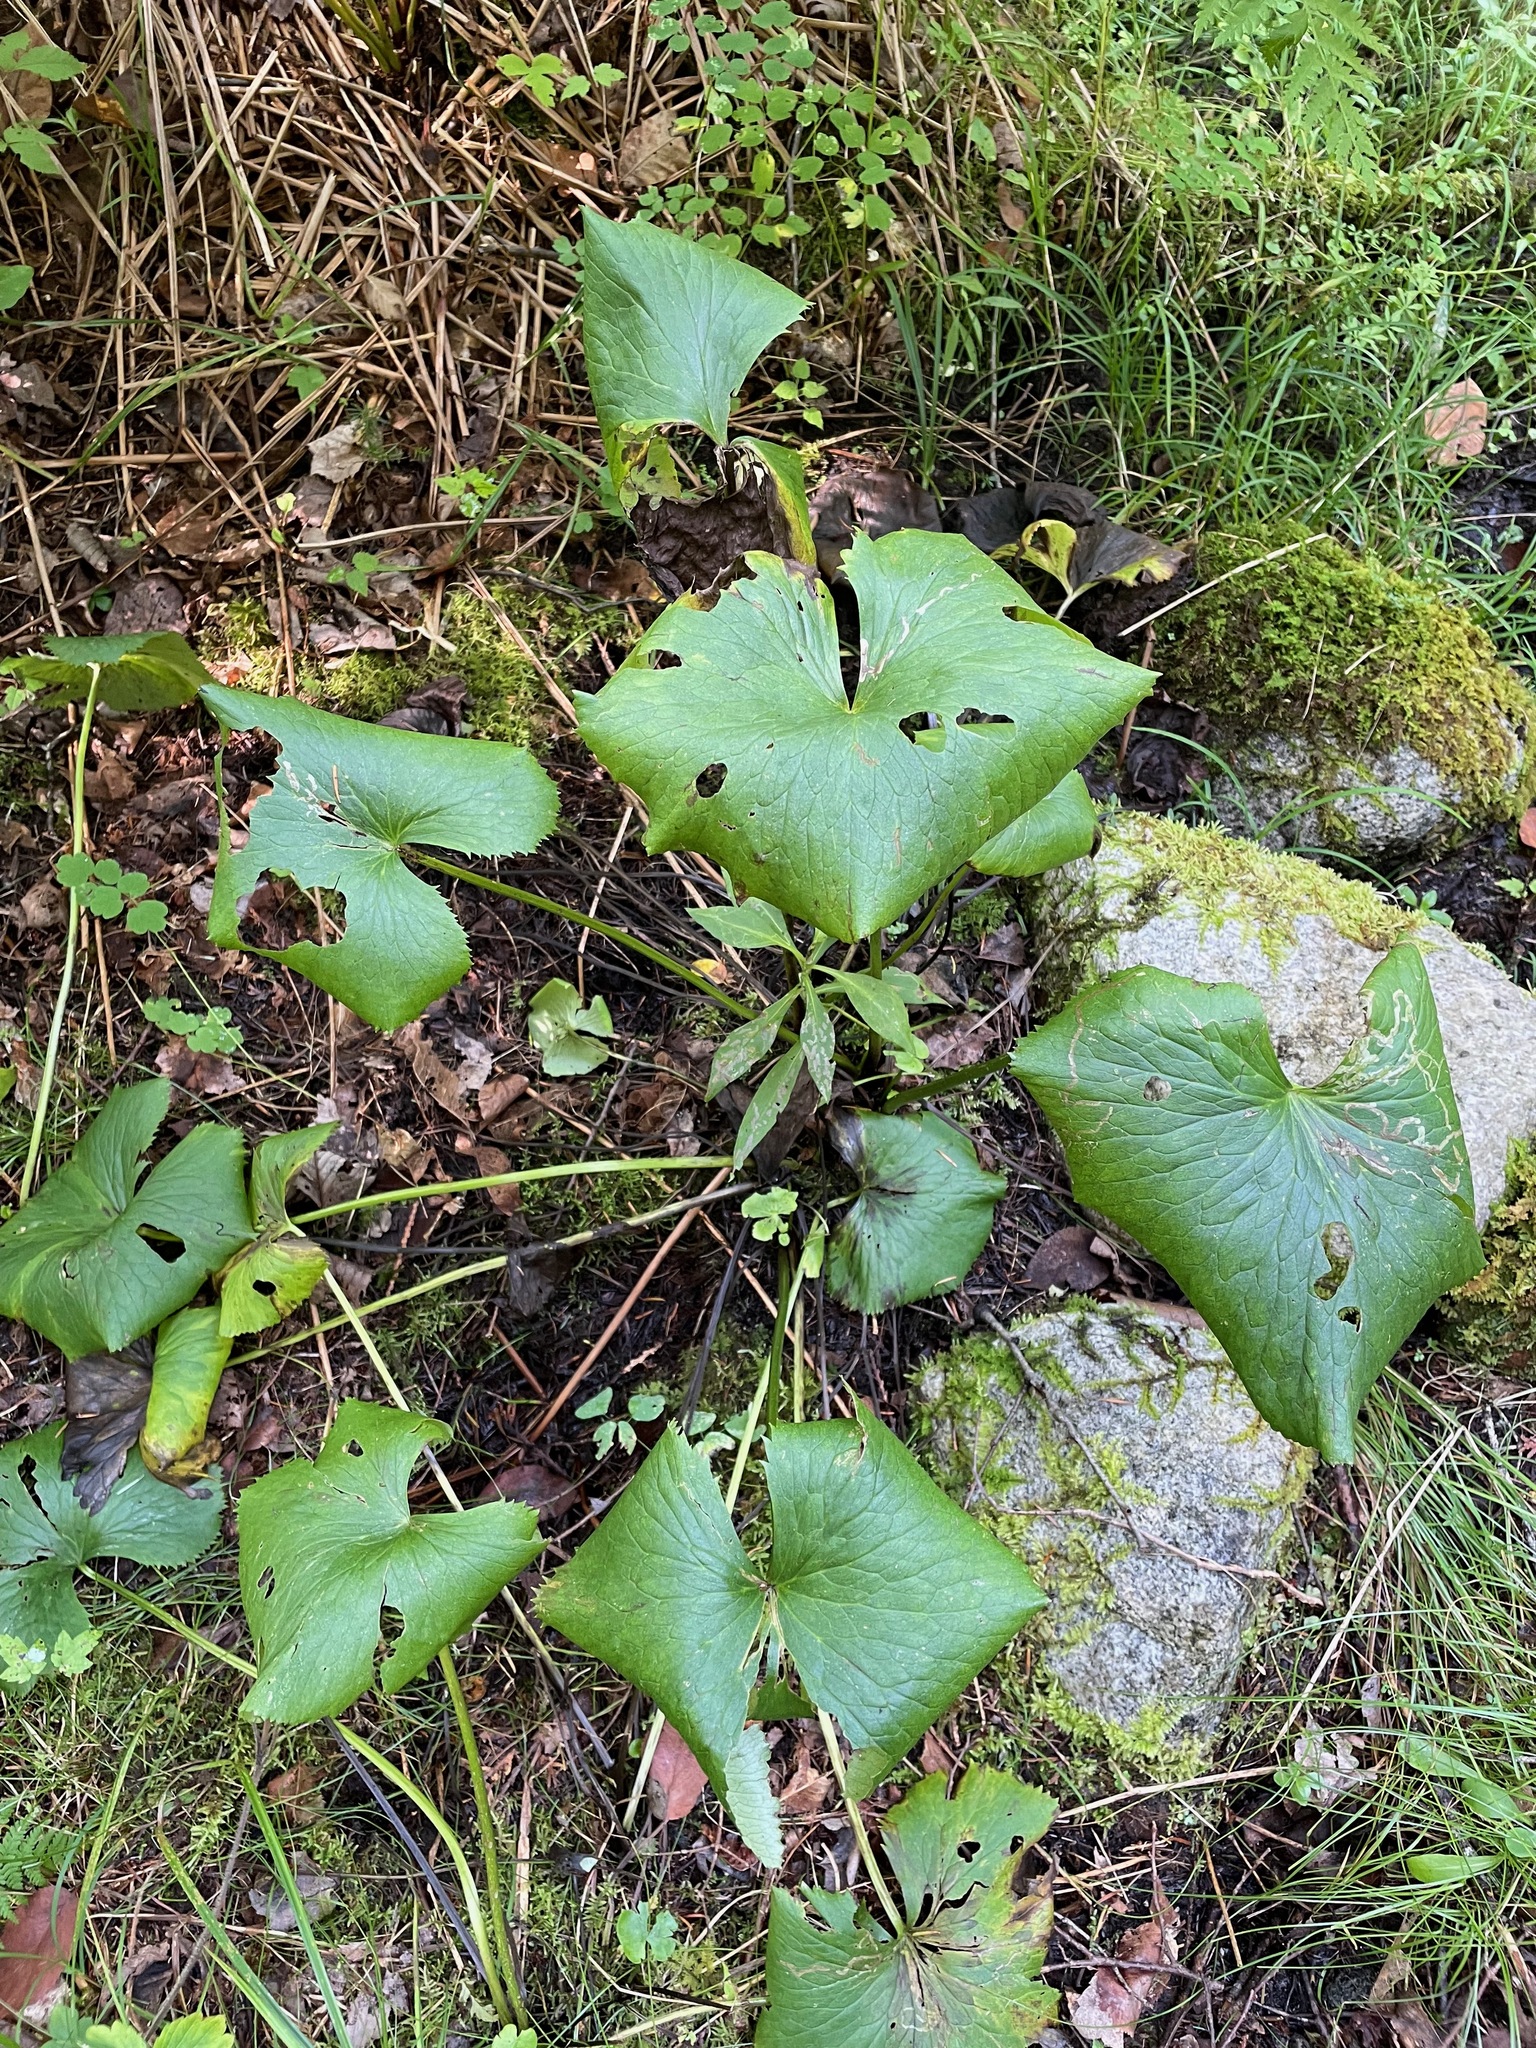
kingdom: Plantae
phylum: Tracheophyta
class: Magnoliopsida
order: Ranunculales
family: Ranunculaceae
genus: Caltha
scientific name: Caltha palustris
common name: Marsh marigold
